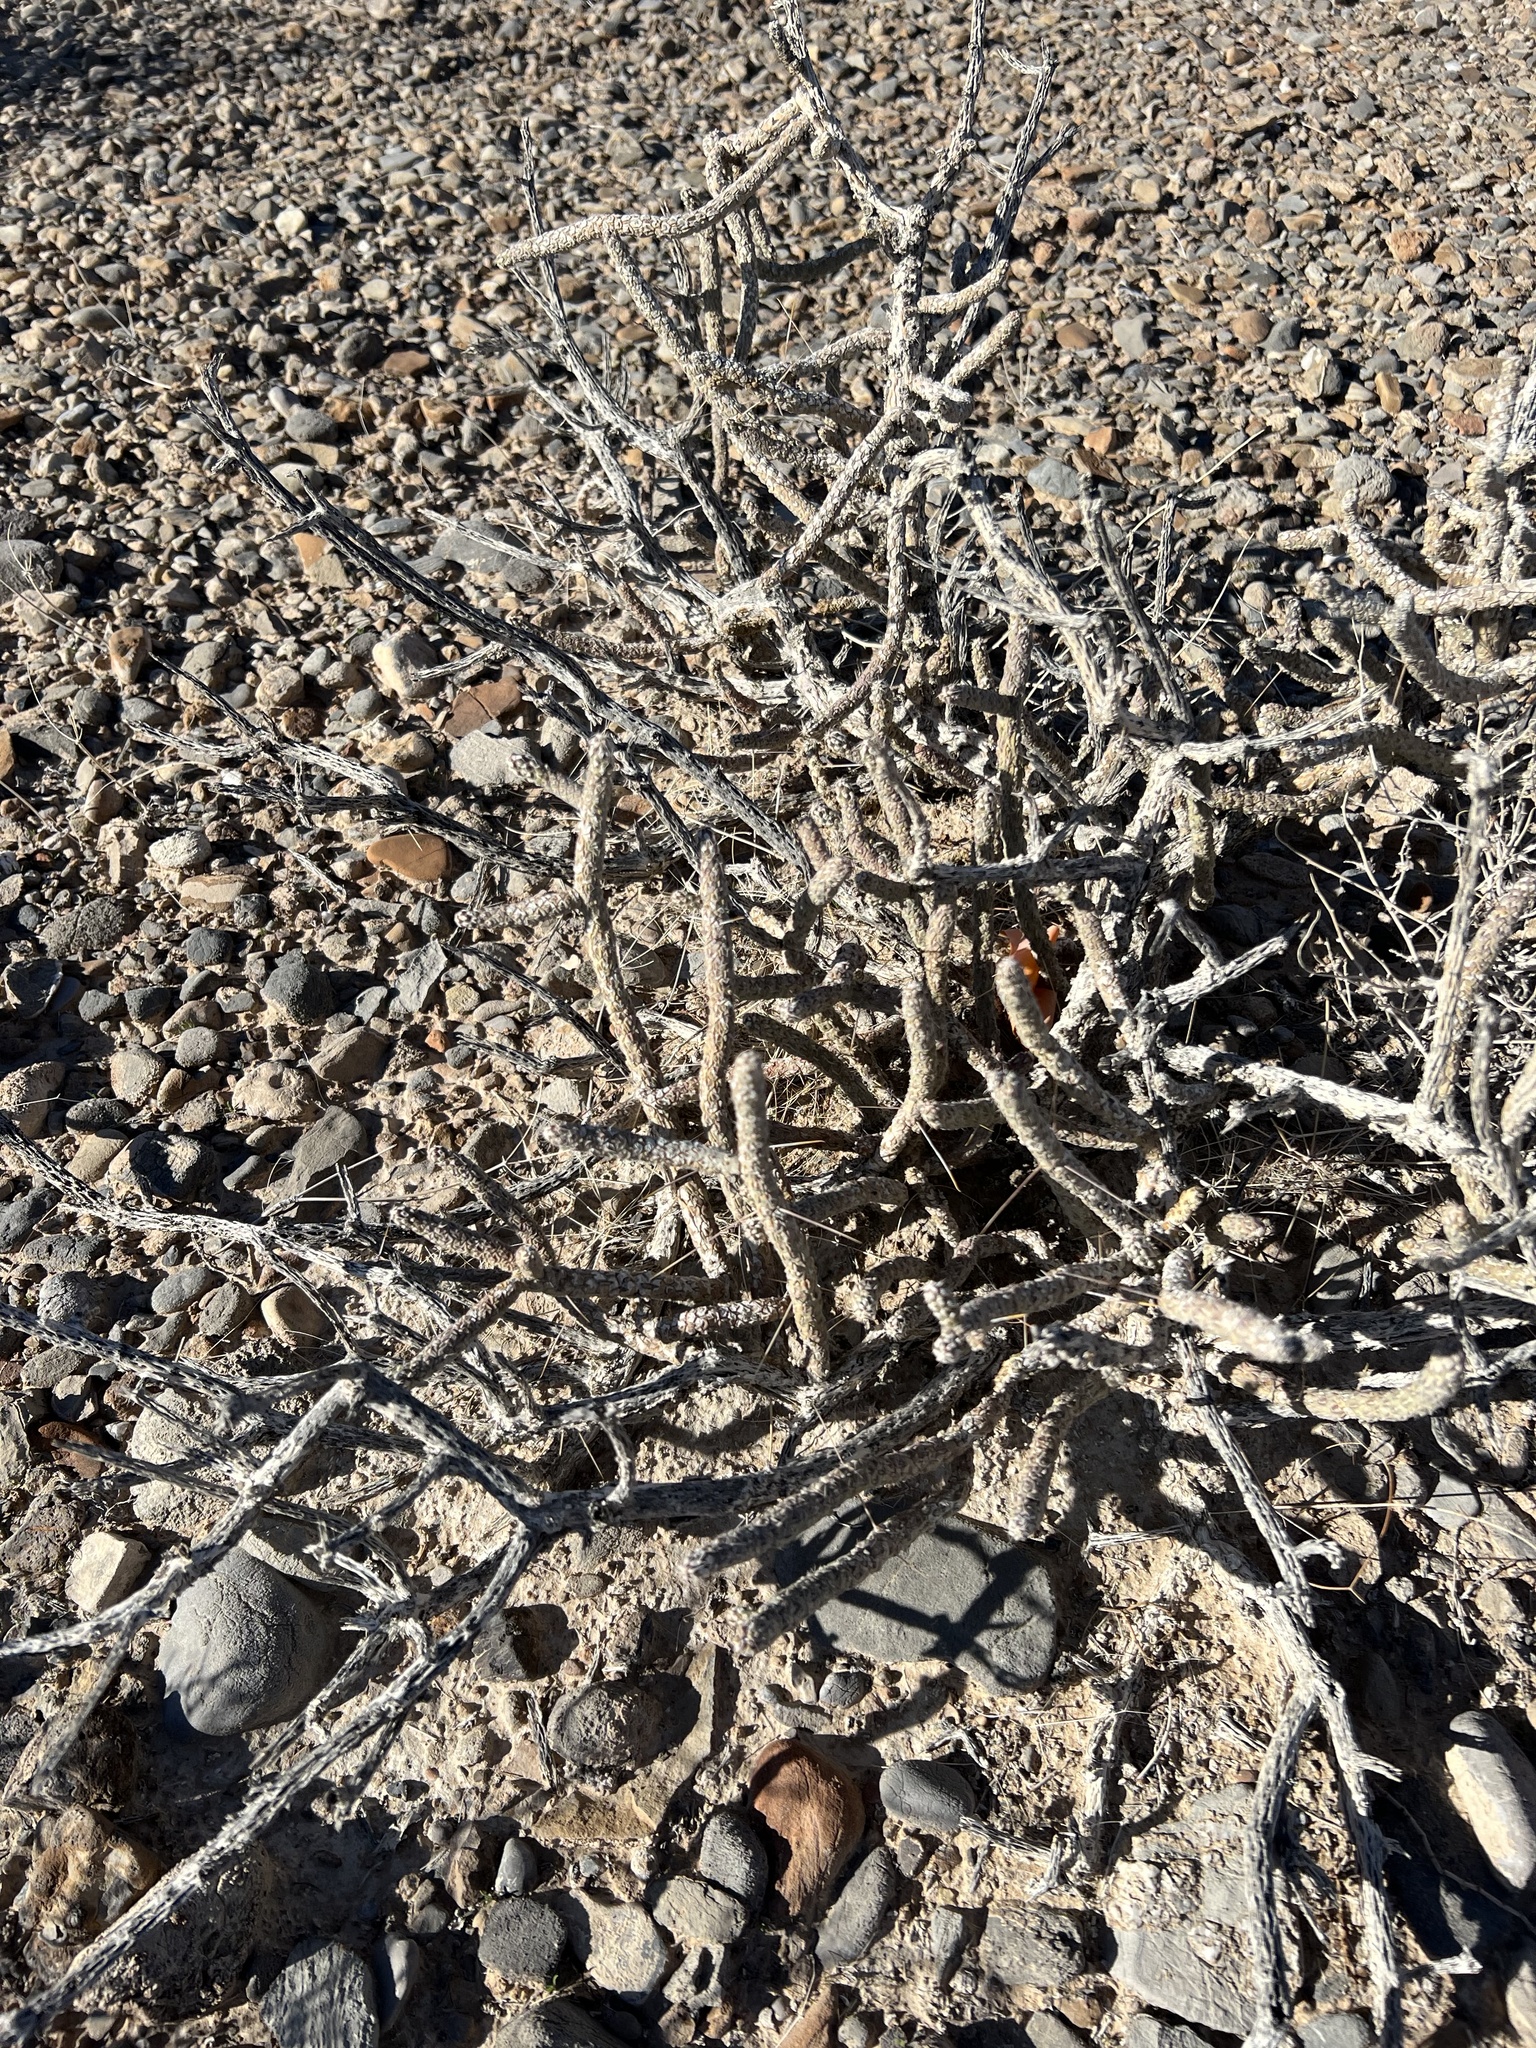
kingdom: Plantae
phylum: Tracheophyta
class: Magnoliopsida
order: Caryophyllales
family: Cactaceae
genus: Cylindropuntia
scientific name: Cylindropuntia ramosissima
